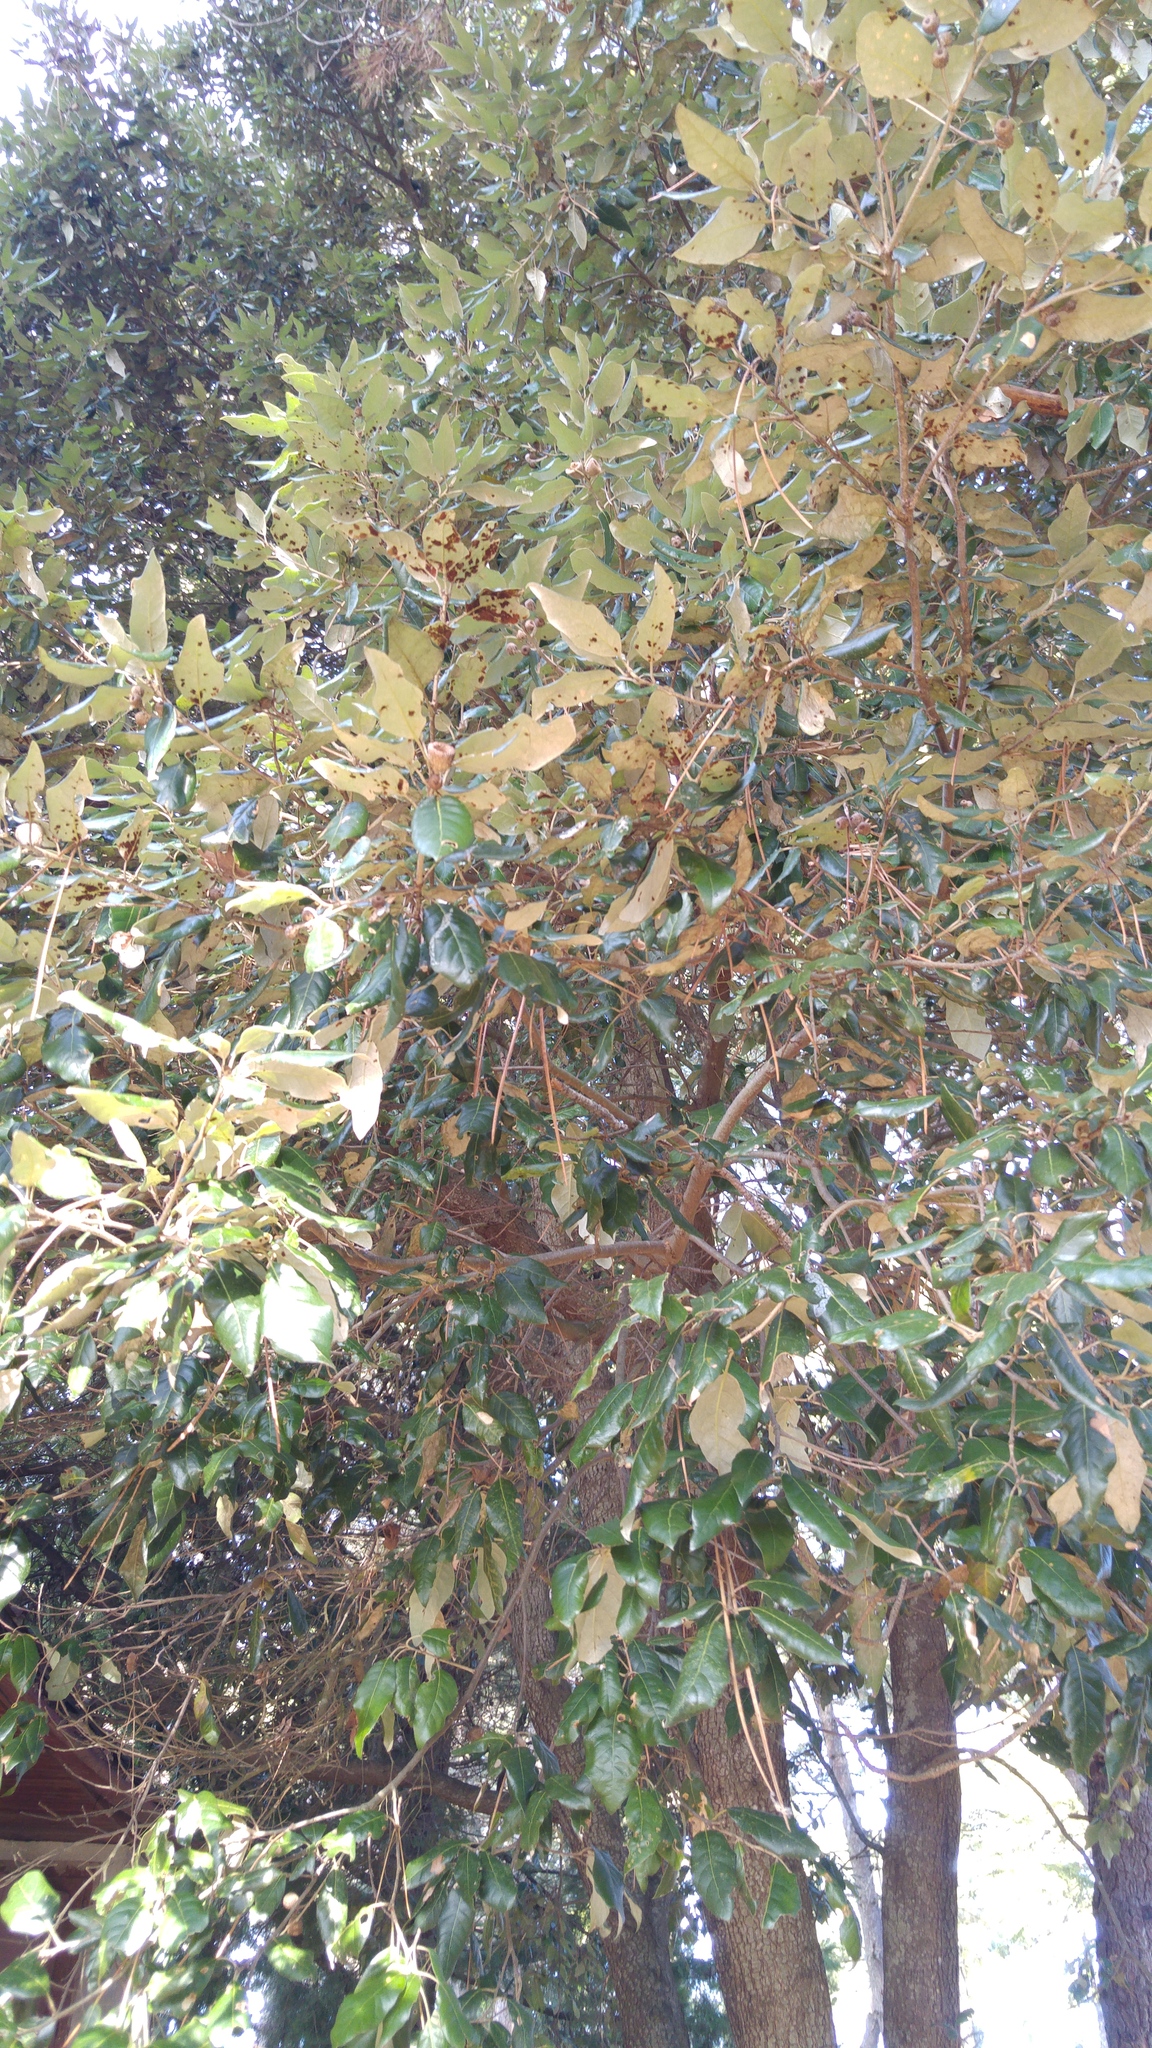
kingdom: Plantae
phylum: Tracheophyta
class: Magnoliopsida
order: Fagales
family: Fagaceae
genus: Quercus
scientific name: Quercus ilex
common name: Evergreen oak
